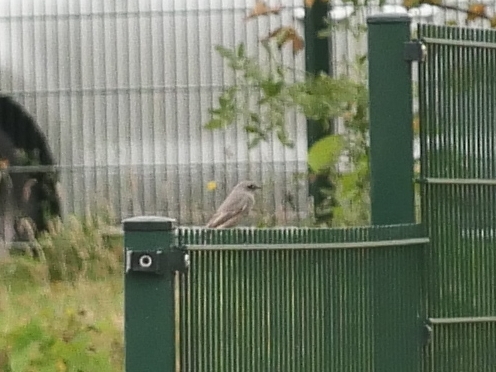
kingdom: Animalia
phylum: Chordata
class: Aves
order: Passeriformes
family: Muscicapidae
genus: Phoenicurus
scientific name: Phoenicurus ochruros
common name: Black redstart
